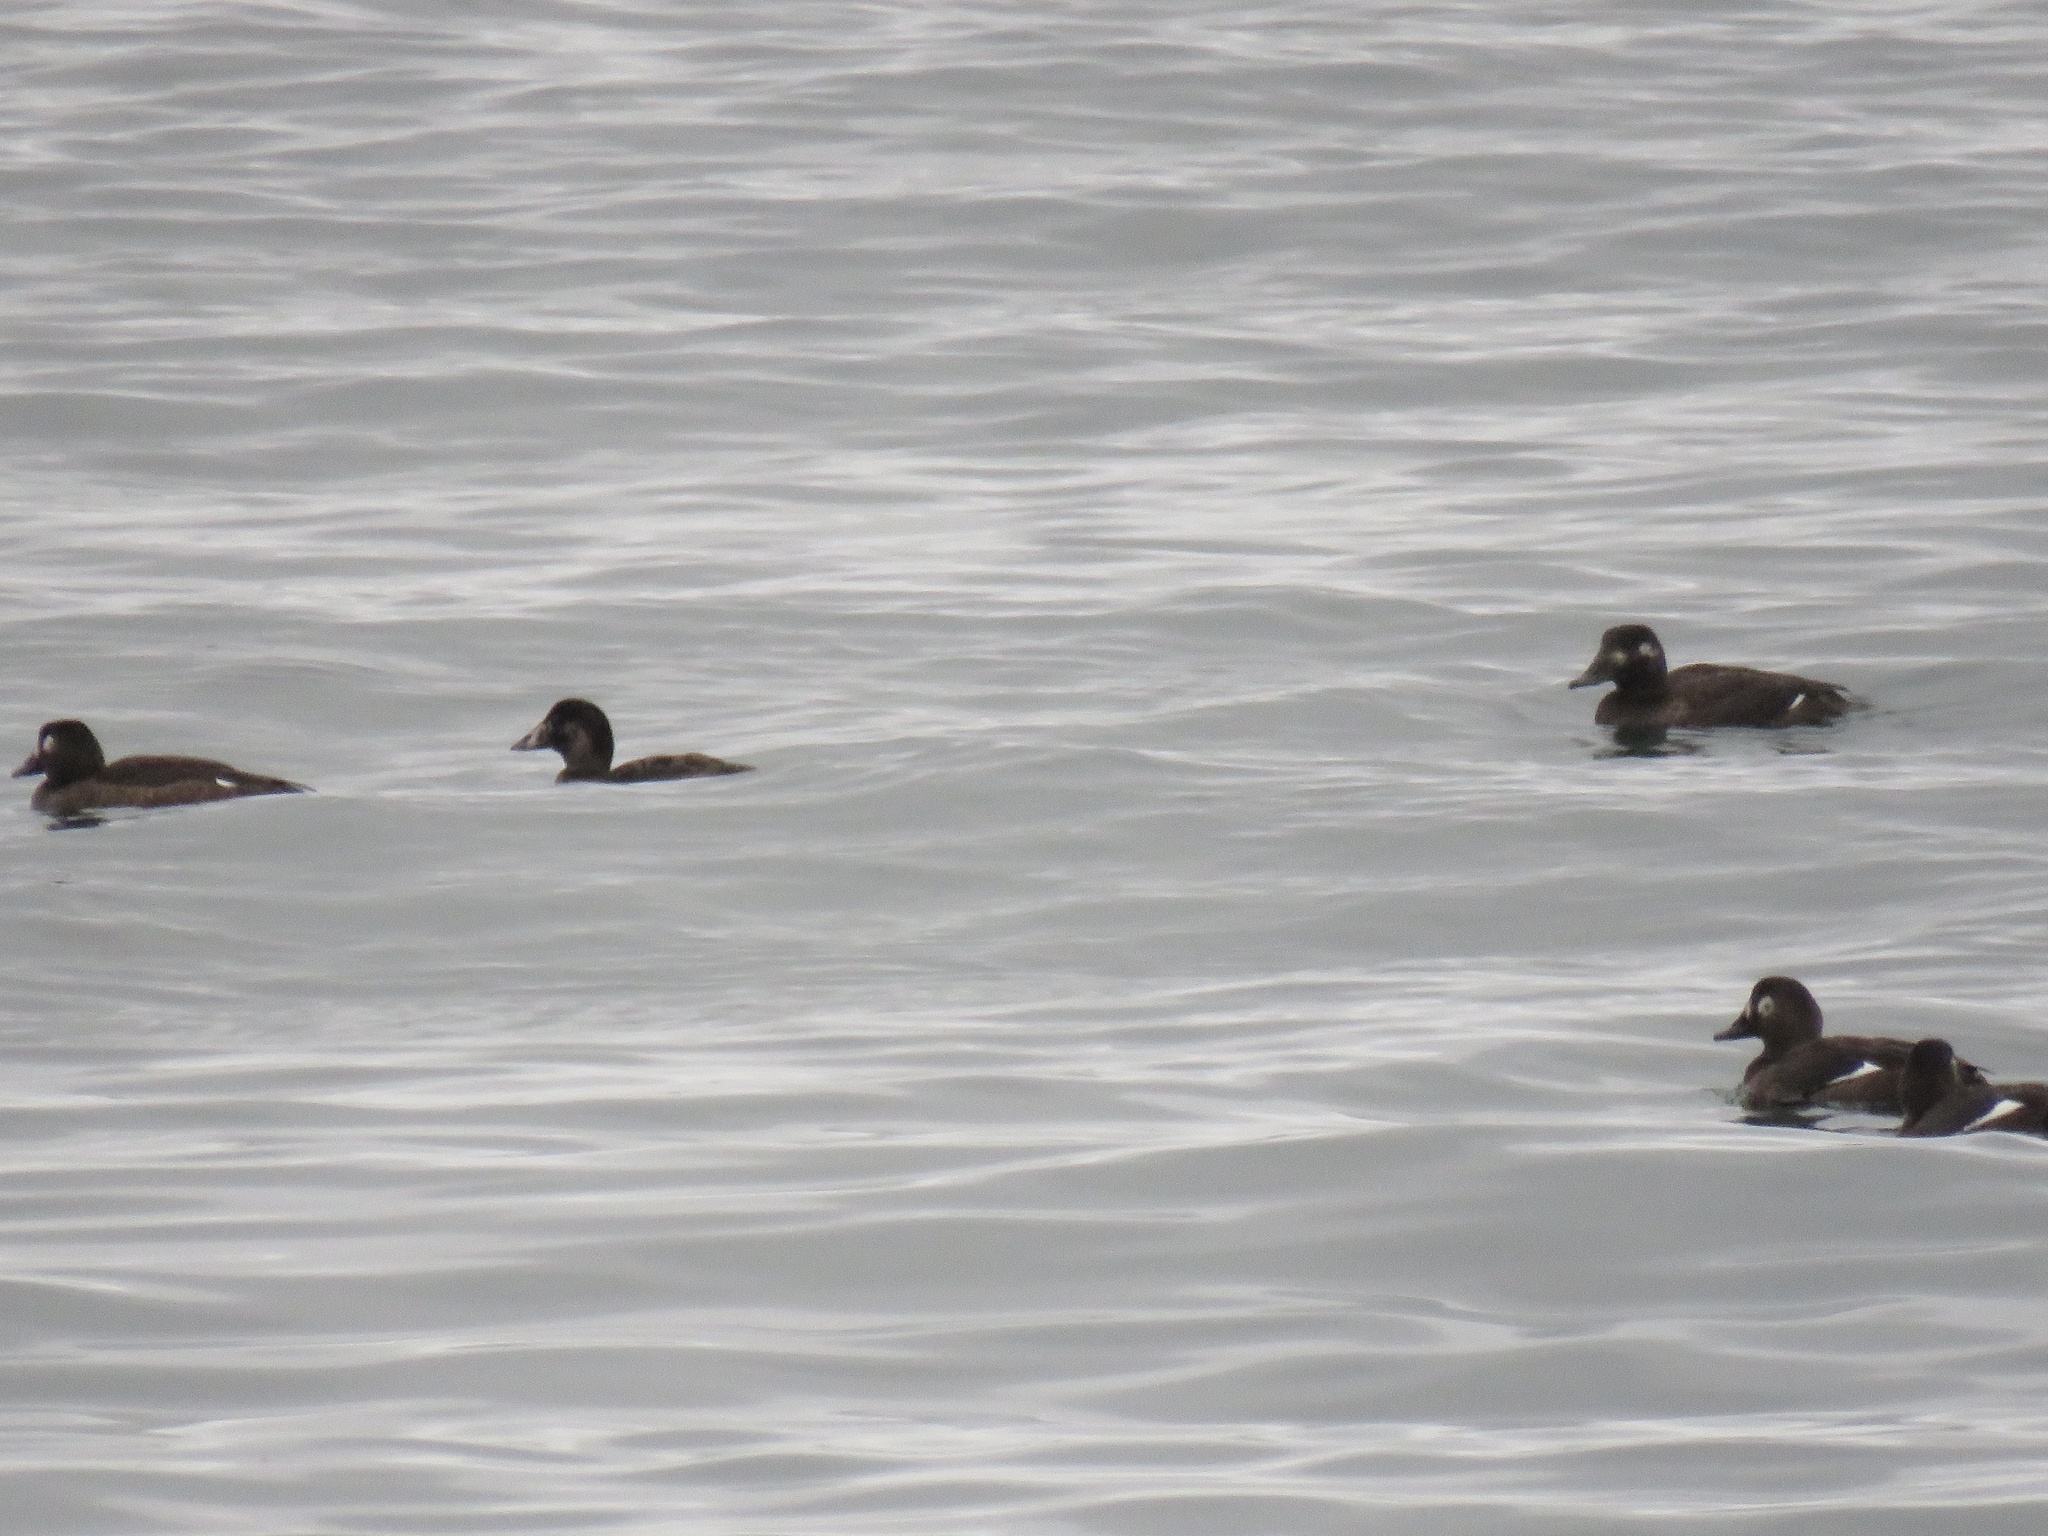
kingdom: Animalia
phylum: Chordata
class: Aves
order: Anseriformes
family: Anatidae
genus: Melanitta
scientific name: Melanitta deglandi
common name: White-winged scoter
